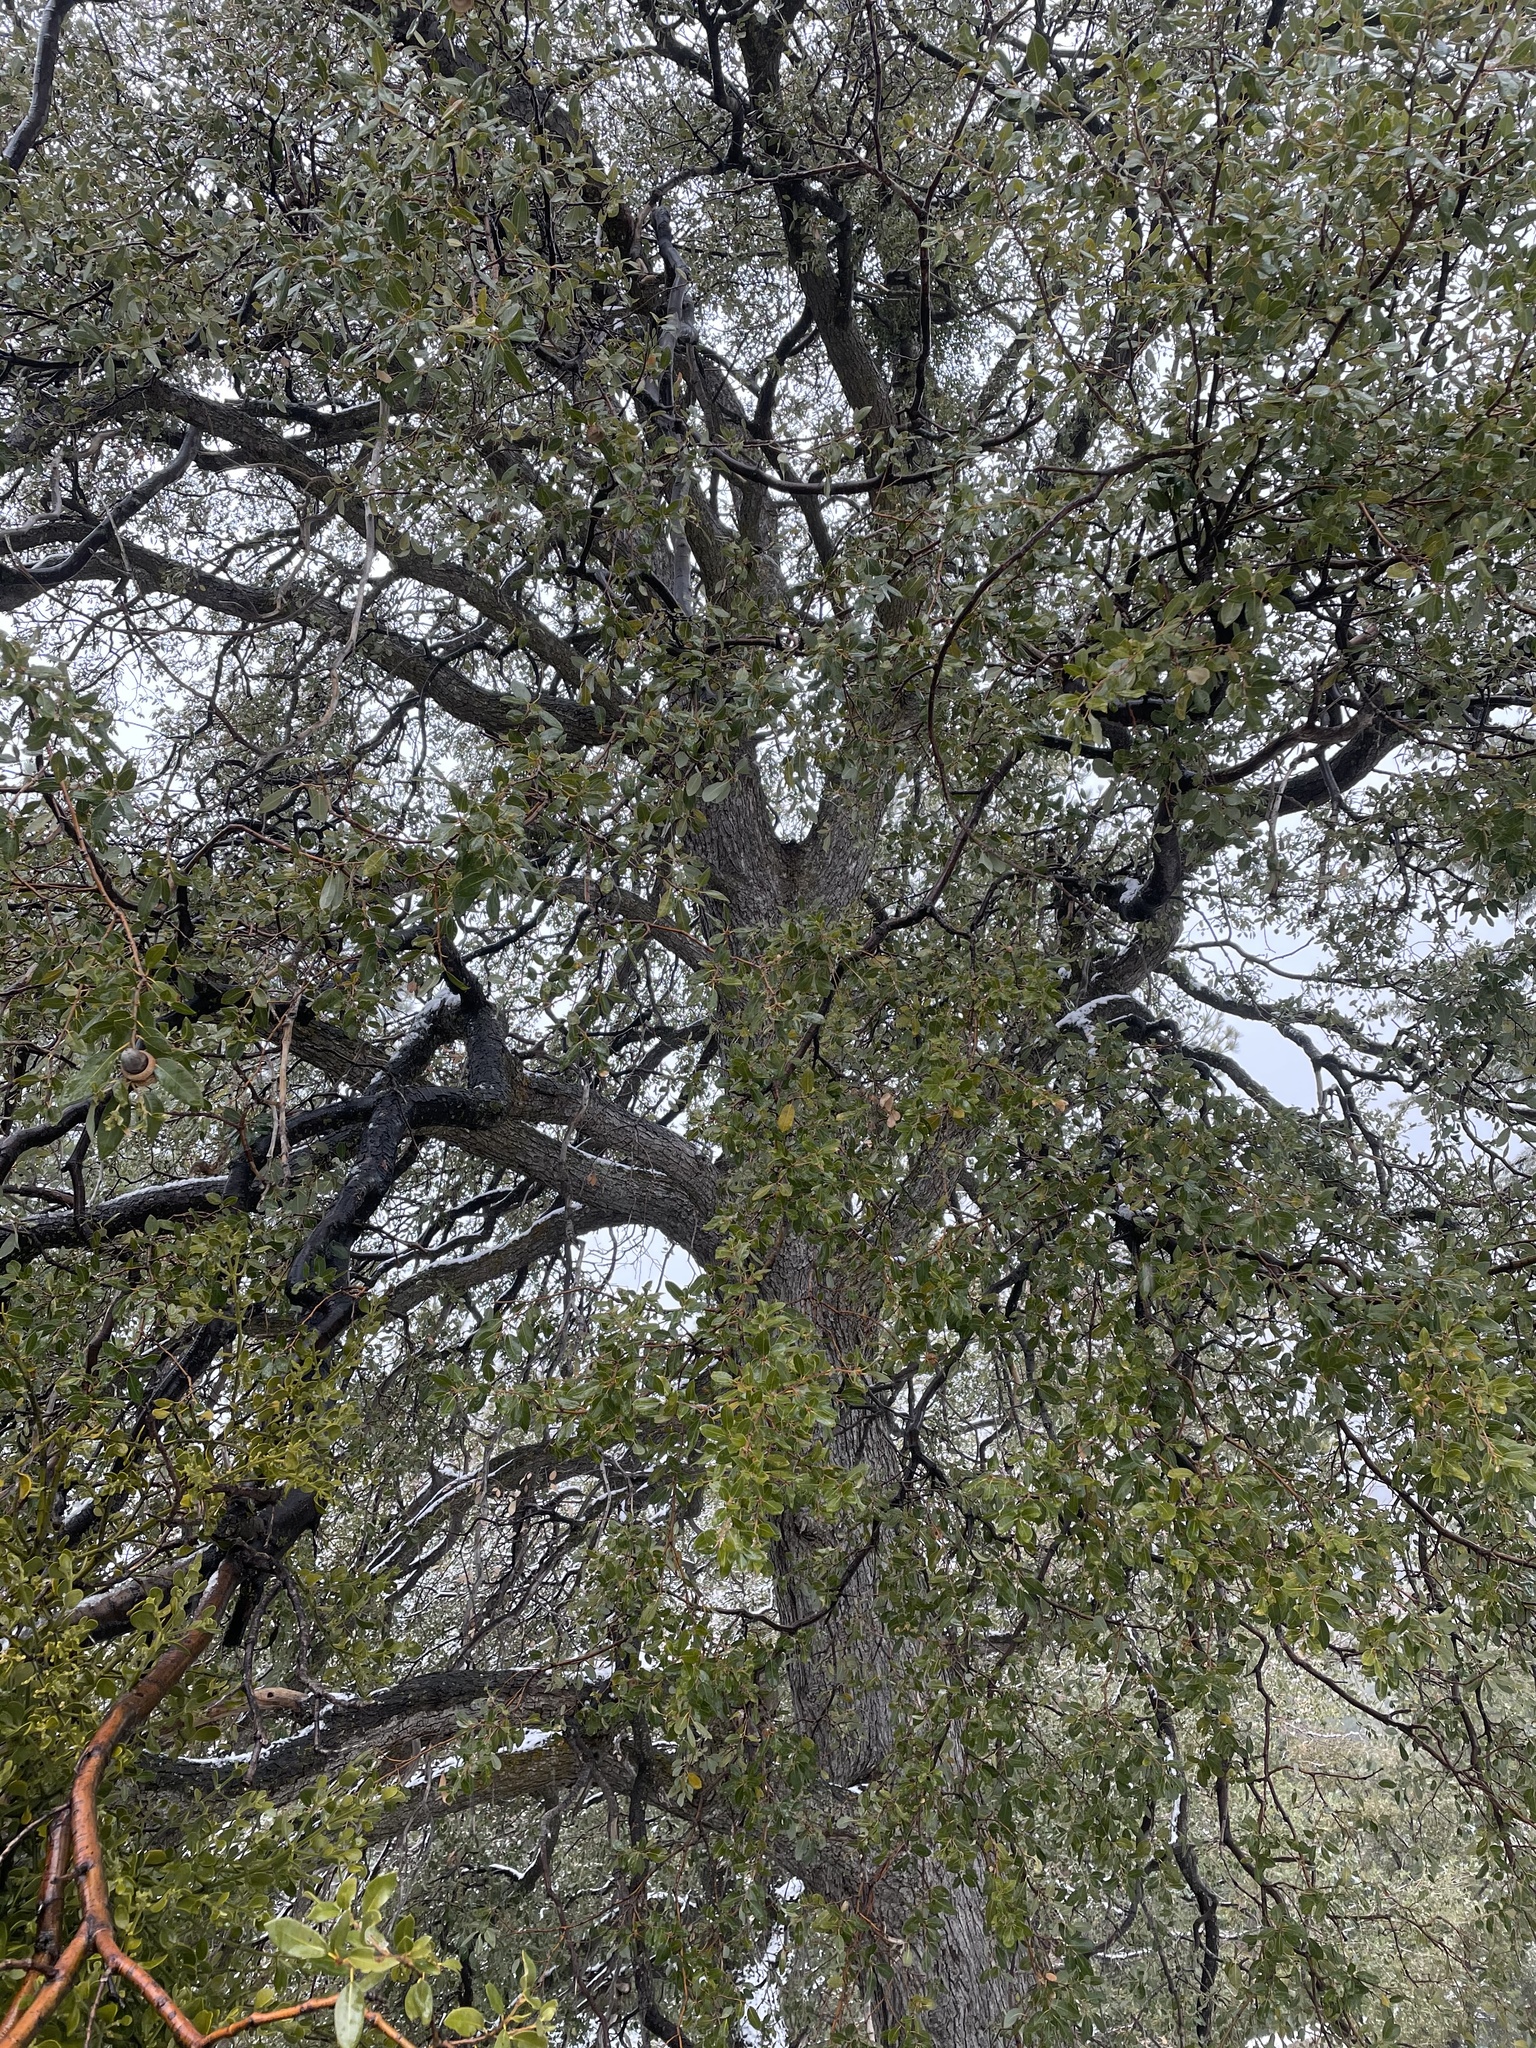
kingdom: Plantae
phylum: Tracheophyta
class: Magnoliopsida
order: Fagales
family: Fagaceae
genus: Quercus
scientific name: Quercus chrysolepis
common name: Canyon live oak
